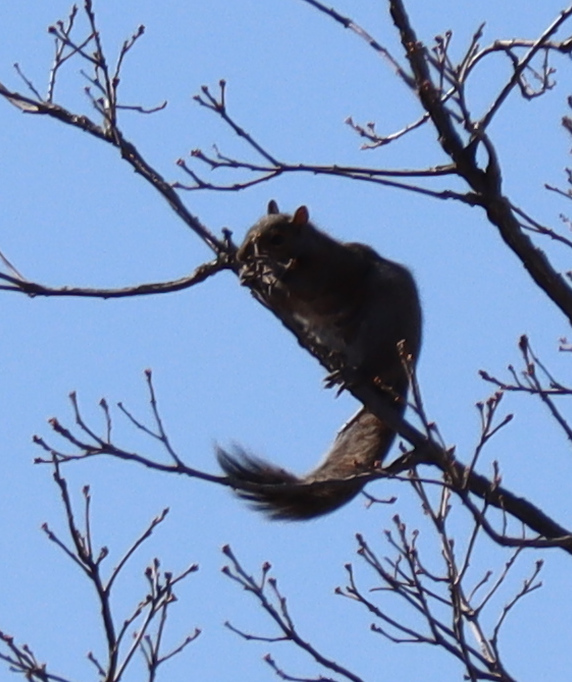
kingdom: Animalia
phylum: Chordata
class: Mammalia
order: Rodentia
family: Sciuridae
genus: Sciurus
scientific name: Sciurus carolinensis
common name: Eastern gray squirrel
